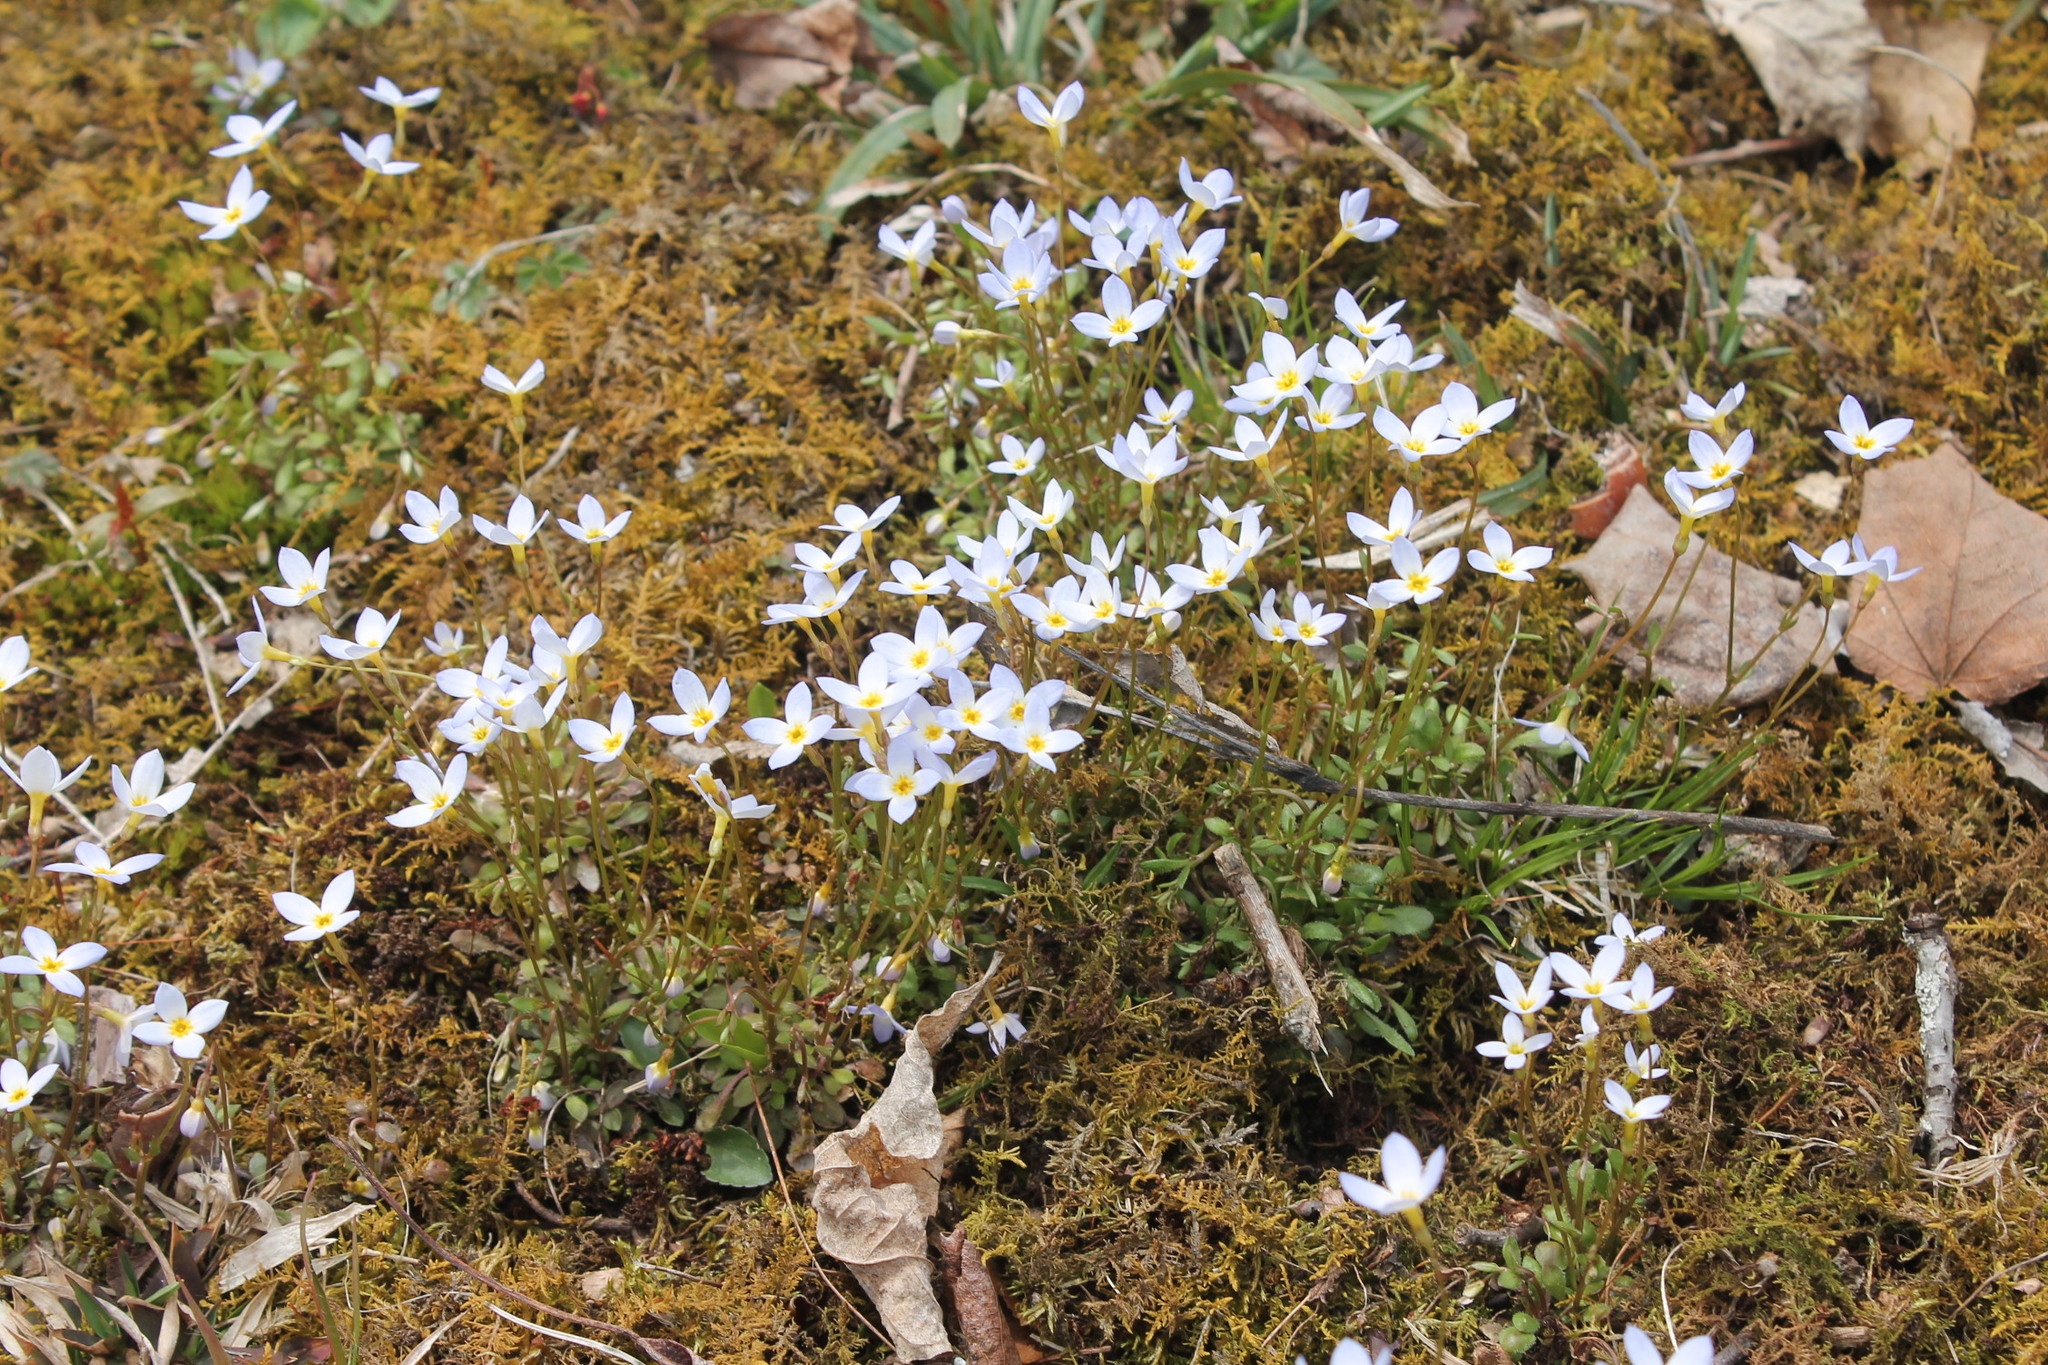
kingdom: Plantae
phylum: Tracheophyta
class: Magnoliopsida
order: Gentianales
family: Rubiaceae
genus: Houstonia
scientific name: Houstonia caerulea
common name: Bluets
